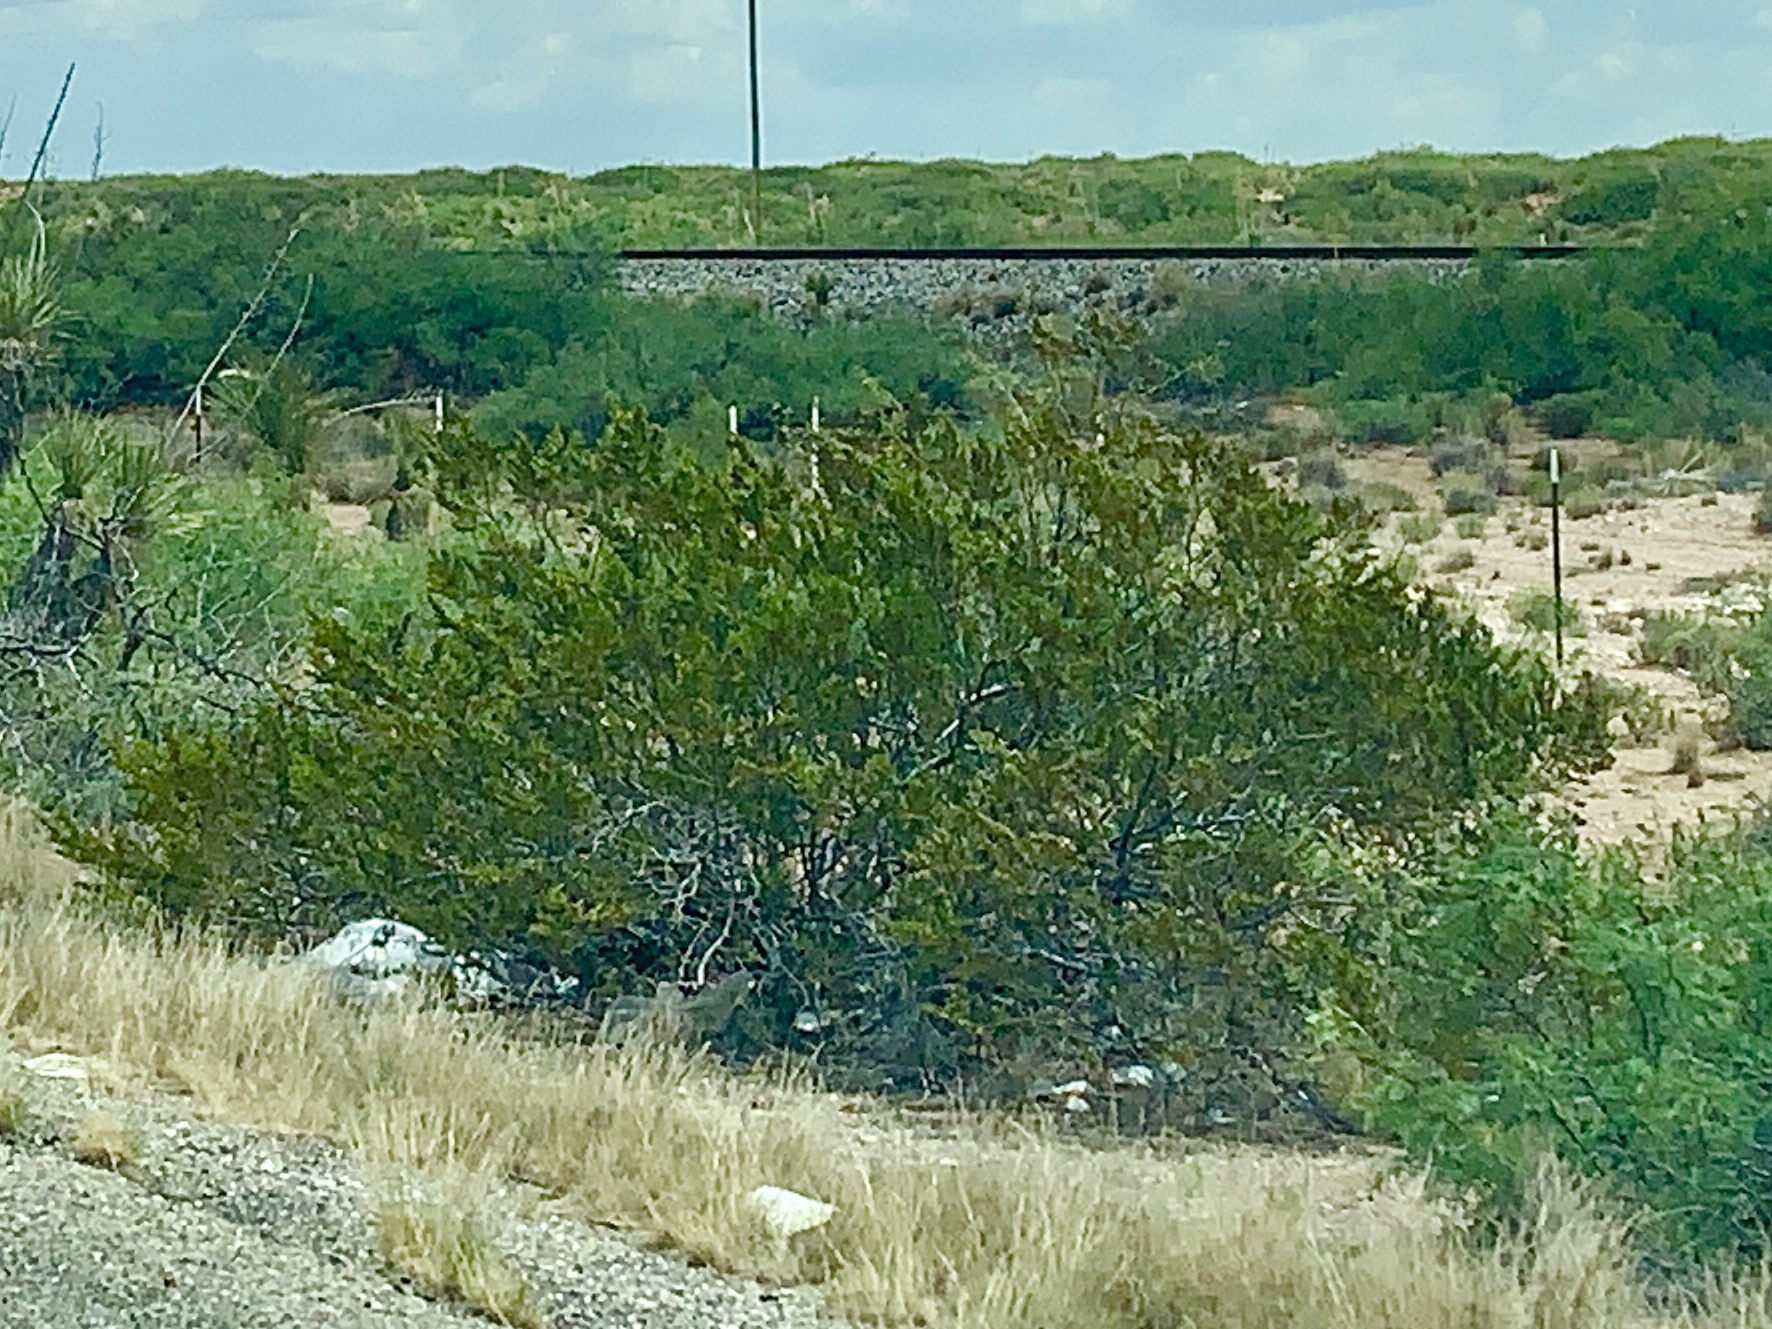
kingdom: Plantae
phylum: Tracheophyta
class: Magnoliopsida
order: Zygophyllales
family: Zygophyllaceae
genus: Larrea
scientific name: Larrea tridentata
